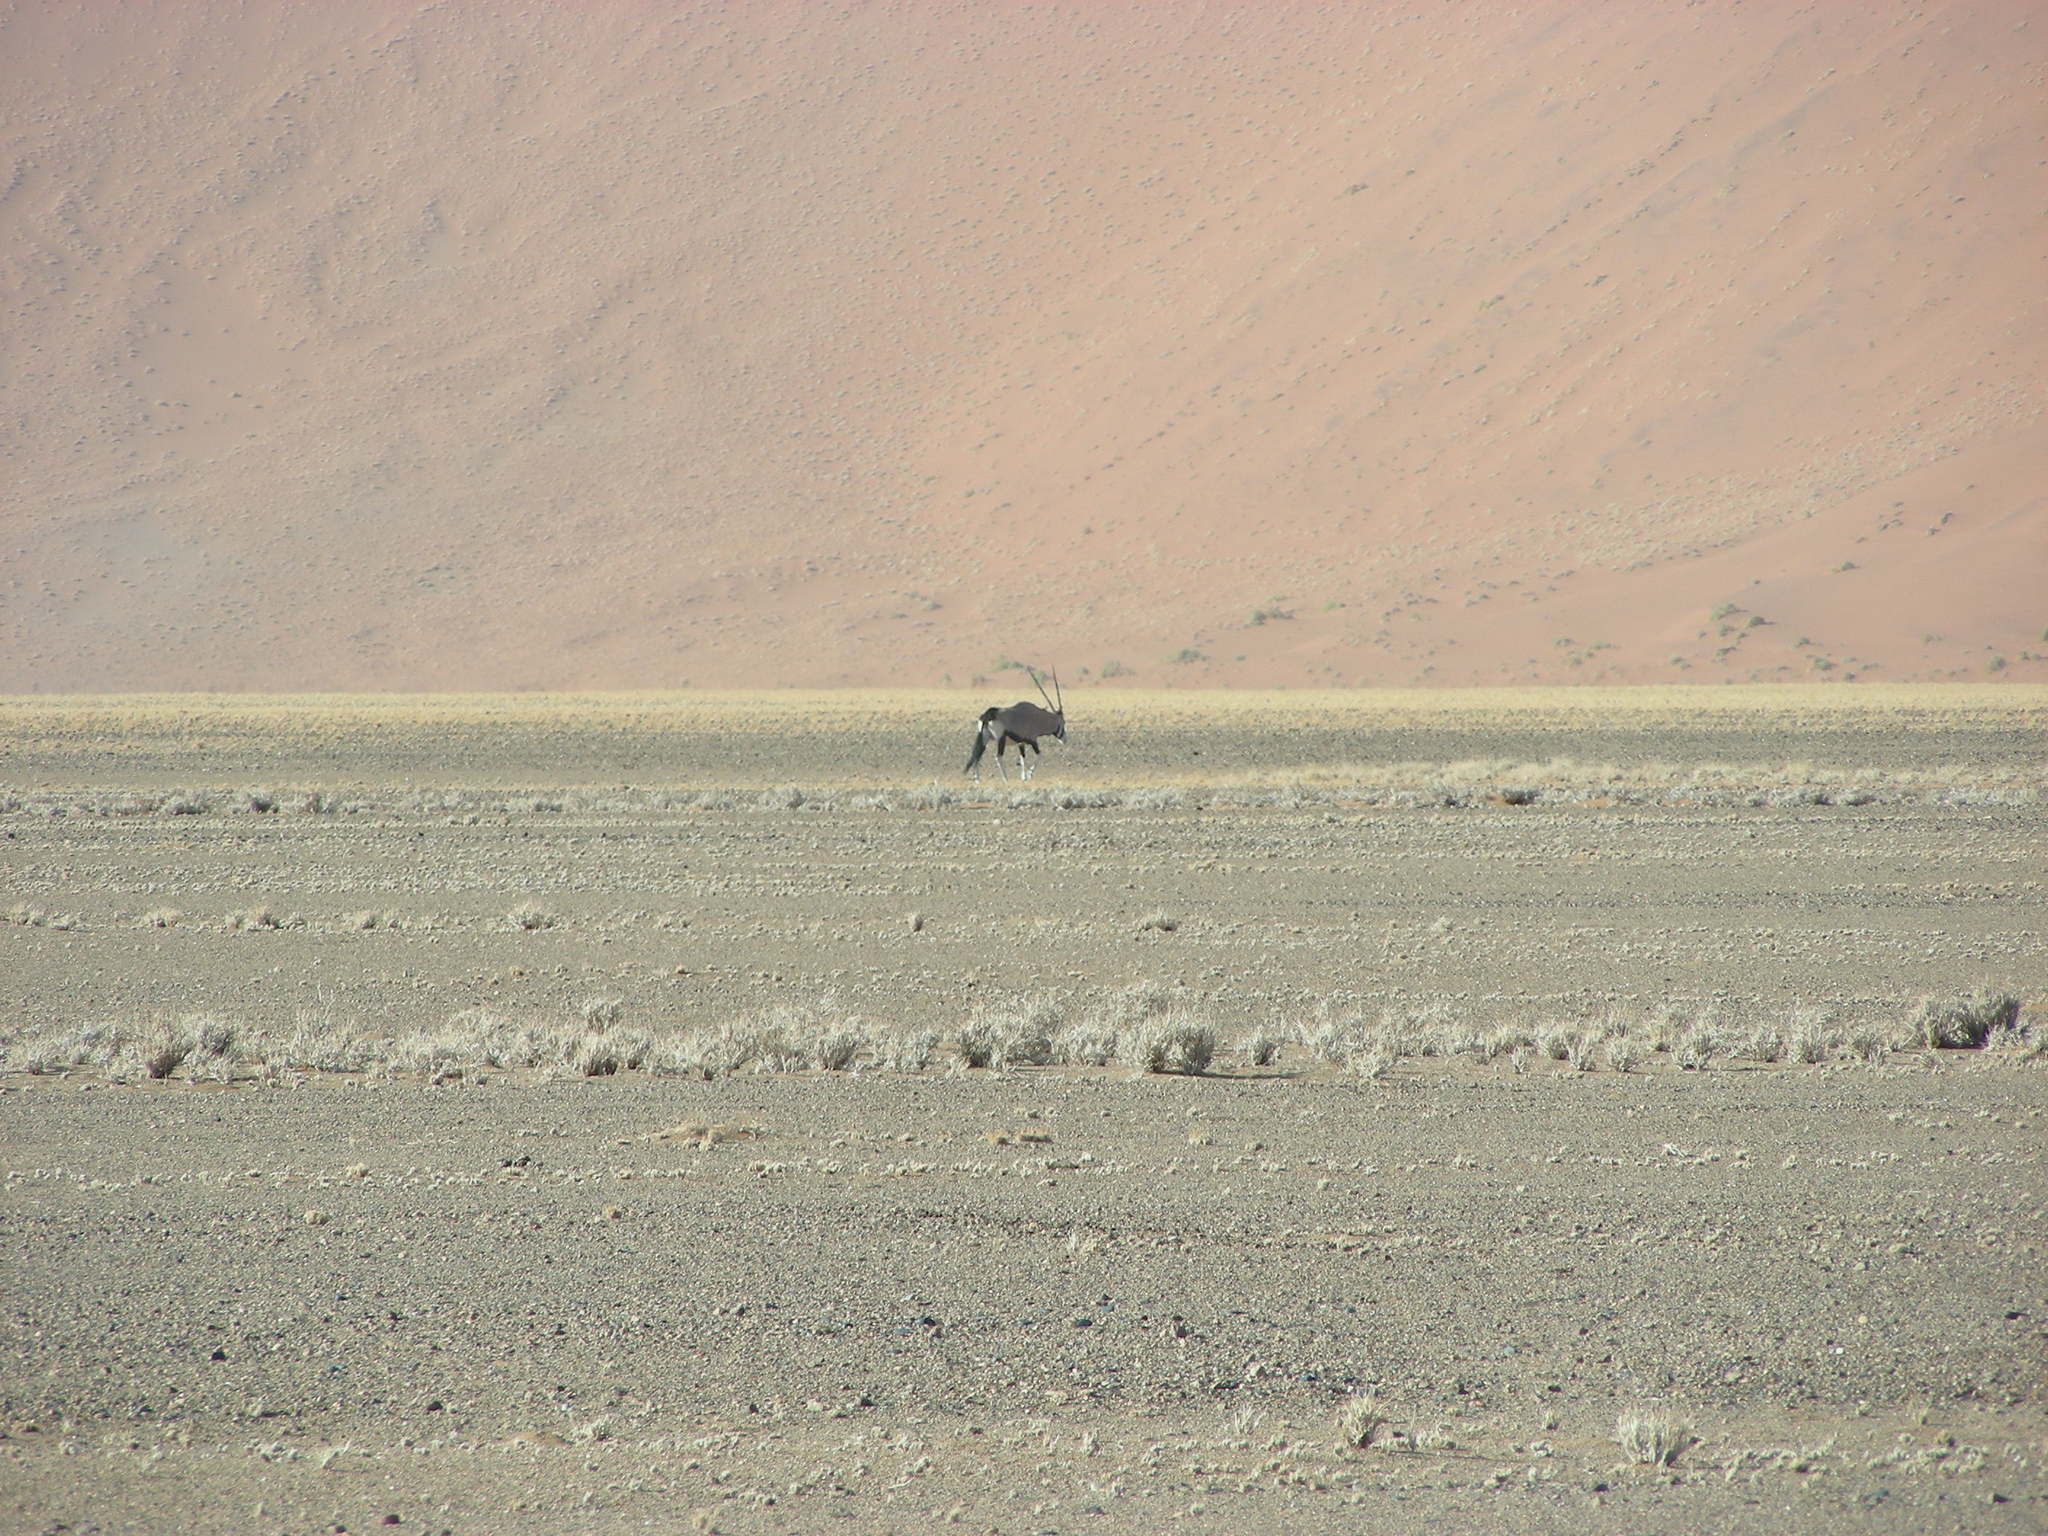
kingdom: Animalia
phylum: Chordata
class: Mammalia
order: Artiodactyla
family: Bovidae
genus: Oryx
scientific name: Oryx gazella
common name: Gemsbok
